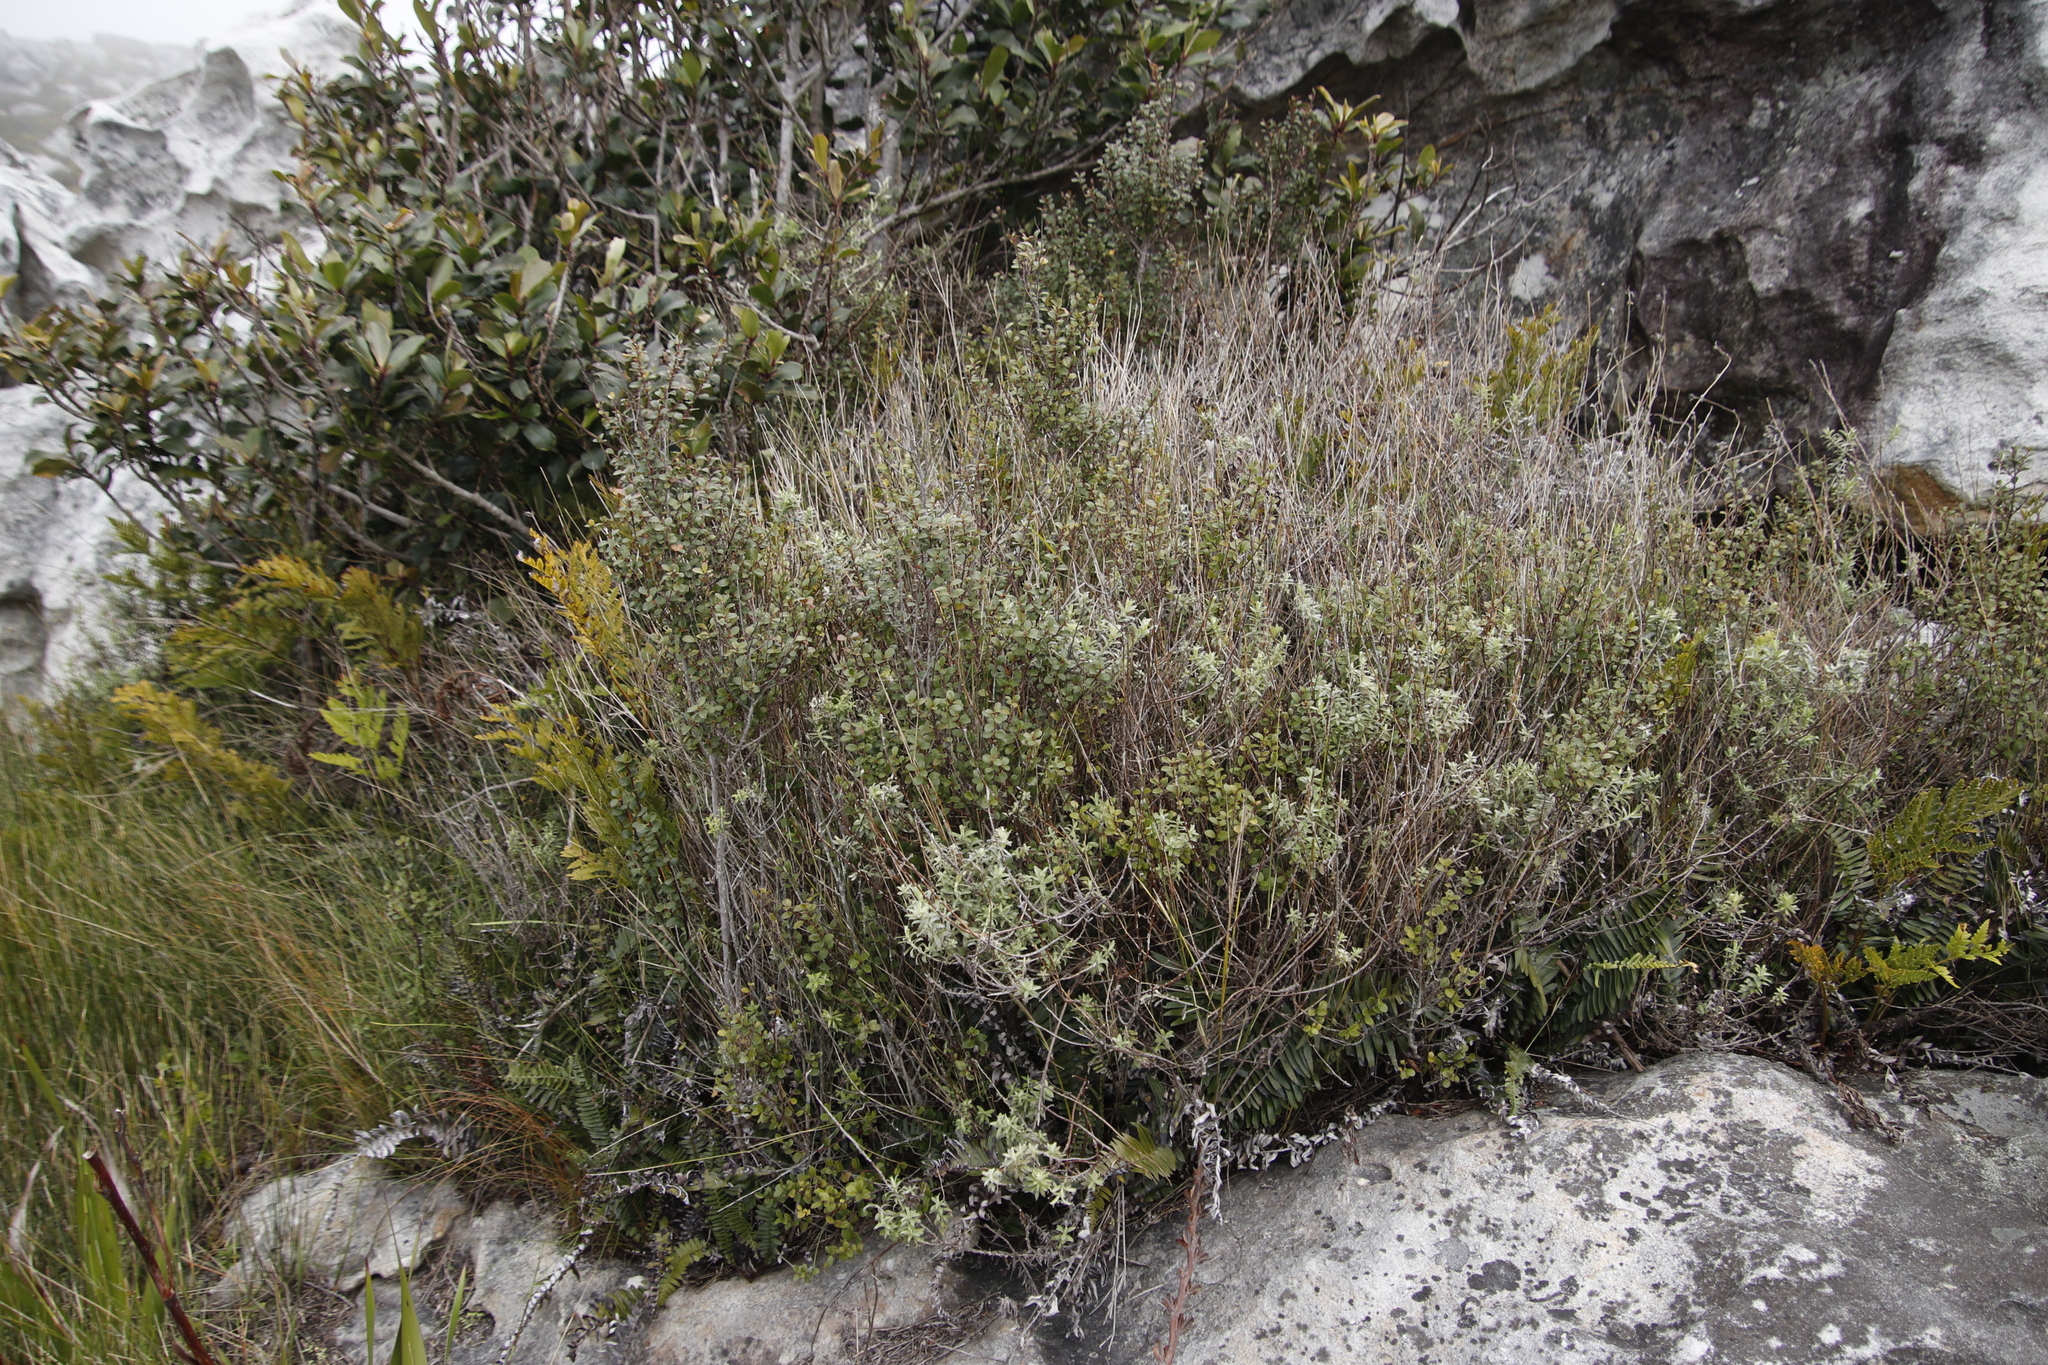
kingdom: Plantae
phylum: Tracheophyta
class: Magnoliopsida
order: Ericales
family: Primulaceae
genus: Myrsine
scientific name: Myrsine africana
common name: African-boxwood
